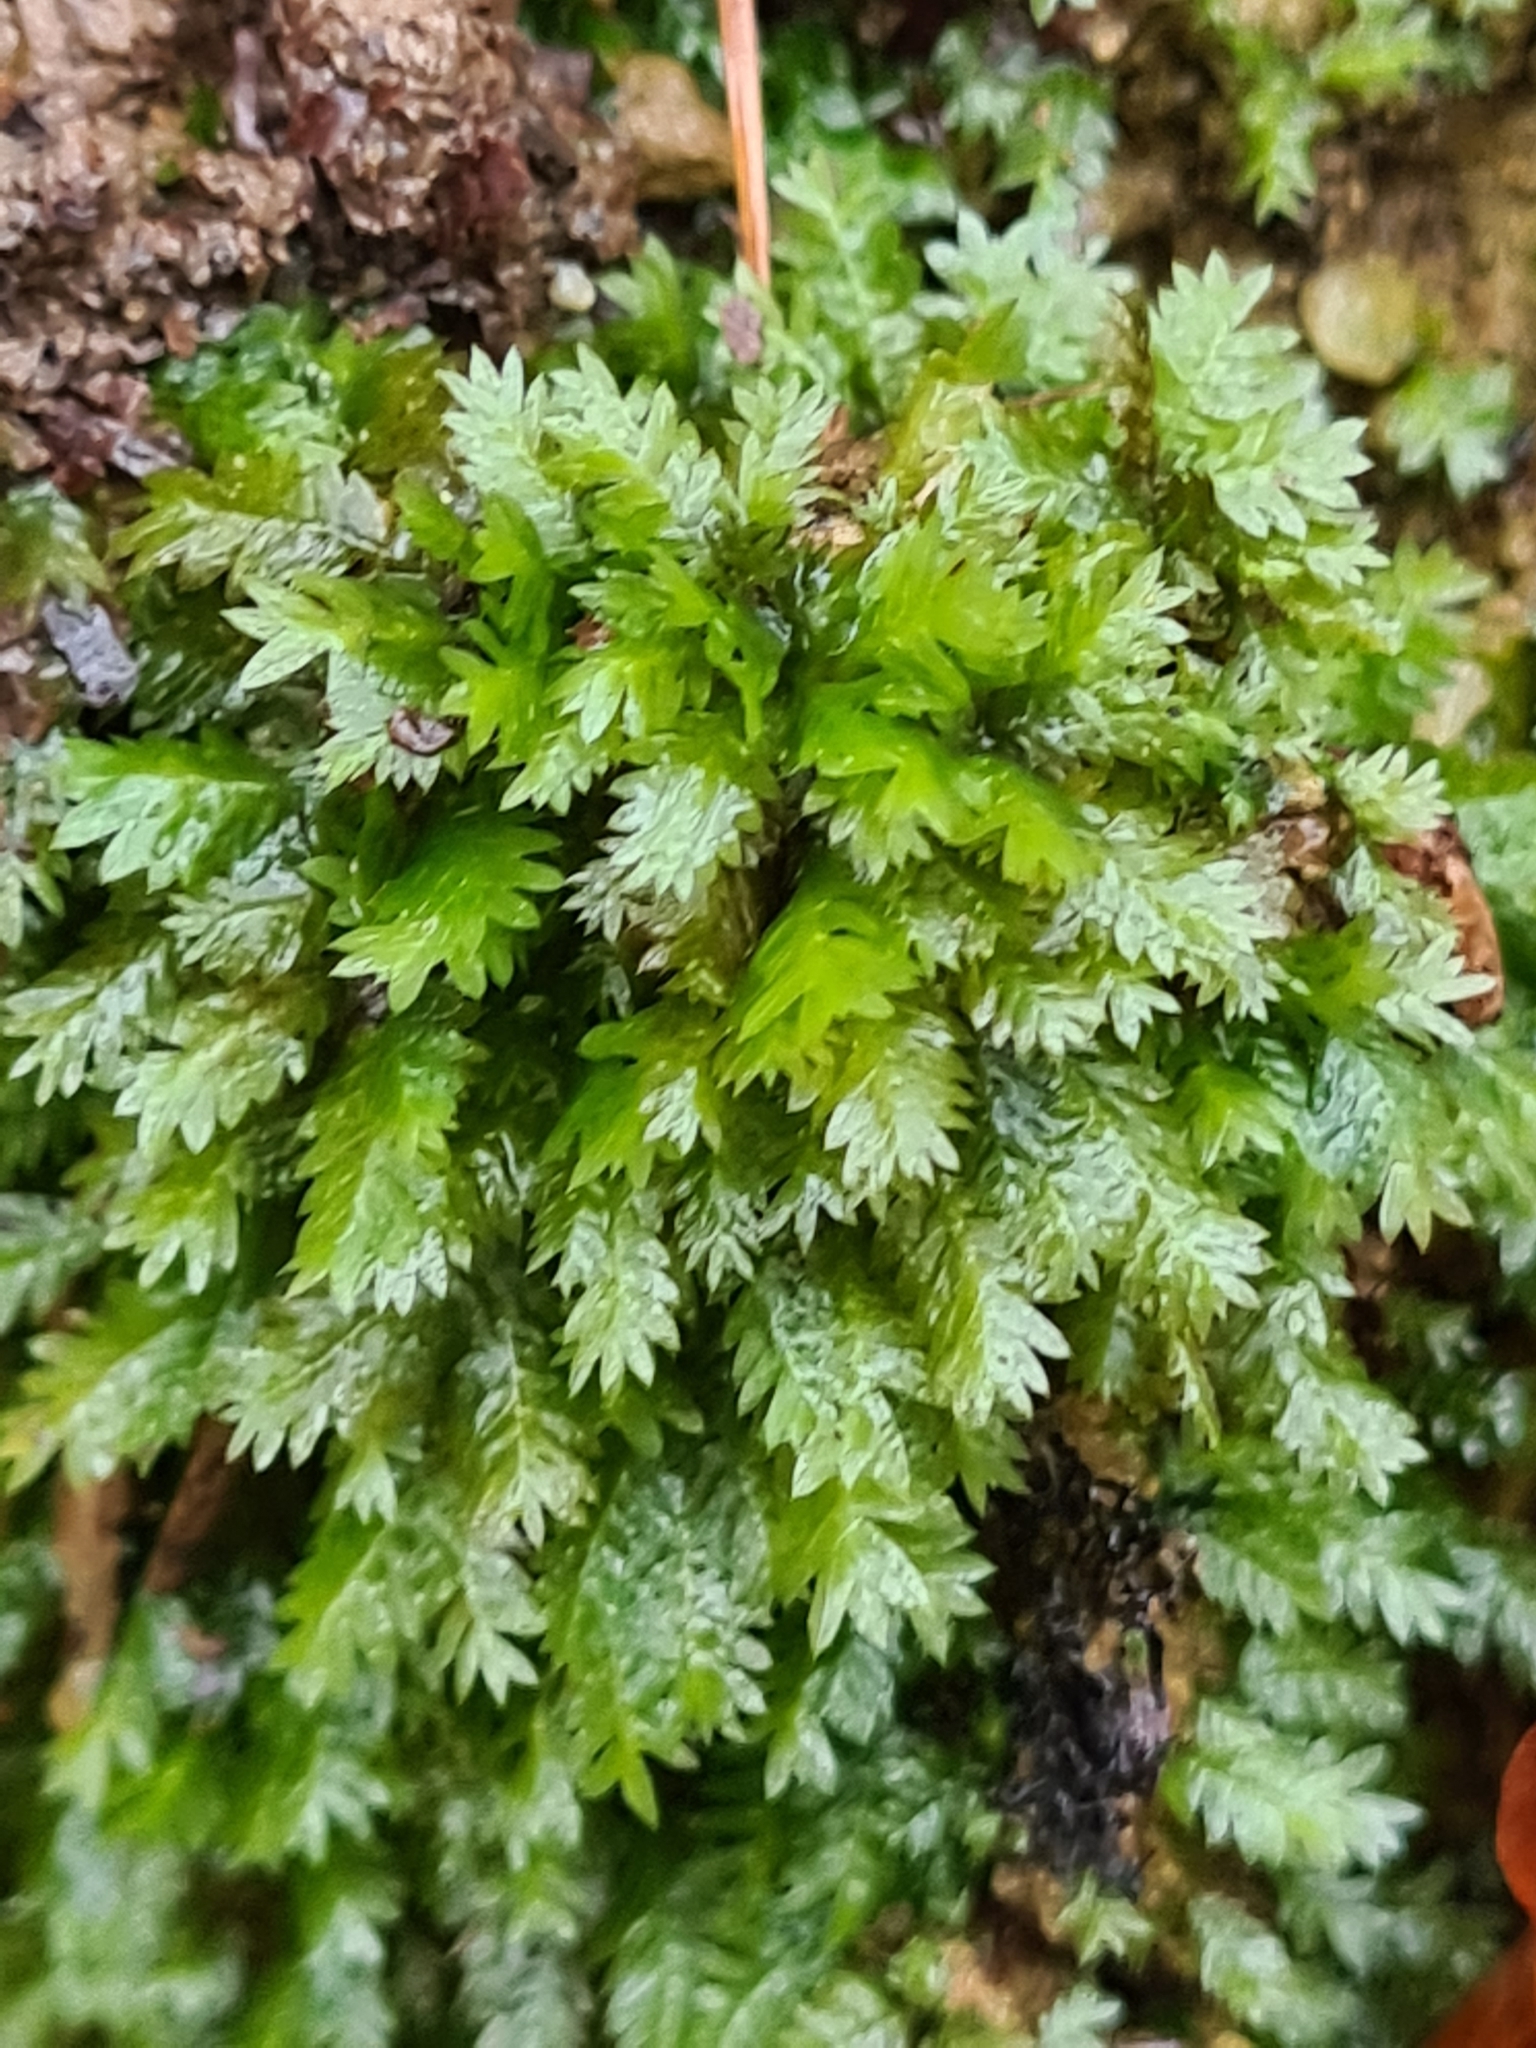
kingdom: Plantae
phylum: Bryophyta
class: Bryopsida
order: Dicranales
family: Fissidentaceae
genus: Fissidens
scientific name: Fissidens adianthoides
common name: Maidenhair pocket moss
